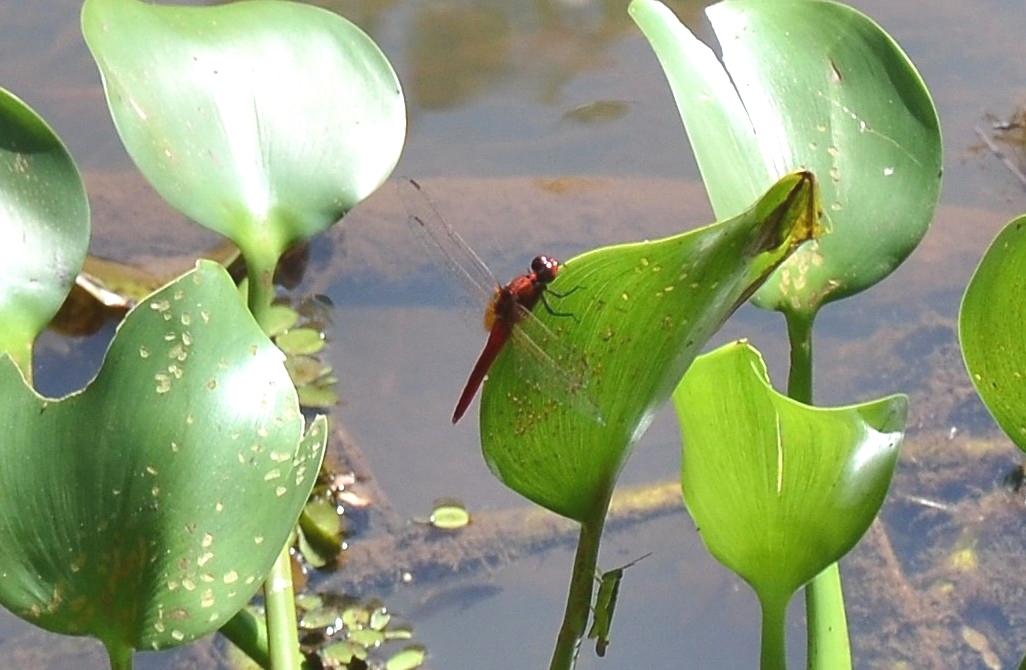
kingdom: Animalia
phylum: Arthropoda
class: Insecta
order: Odonata
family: Libellulidae
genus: Rhodothemis
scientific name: Rhodothemis rufa
